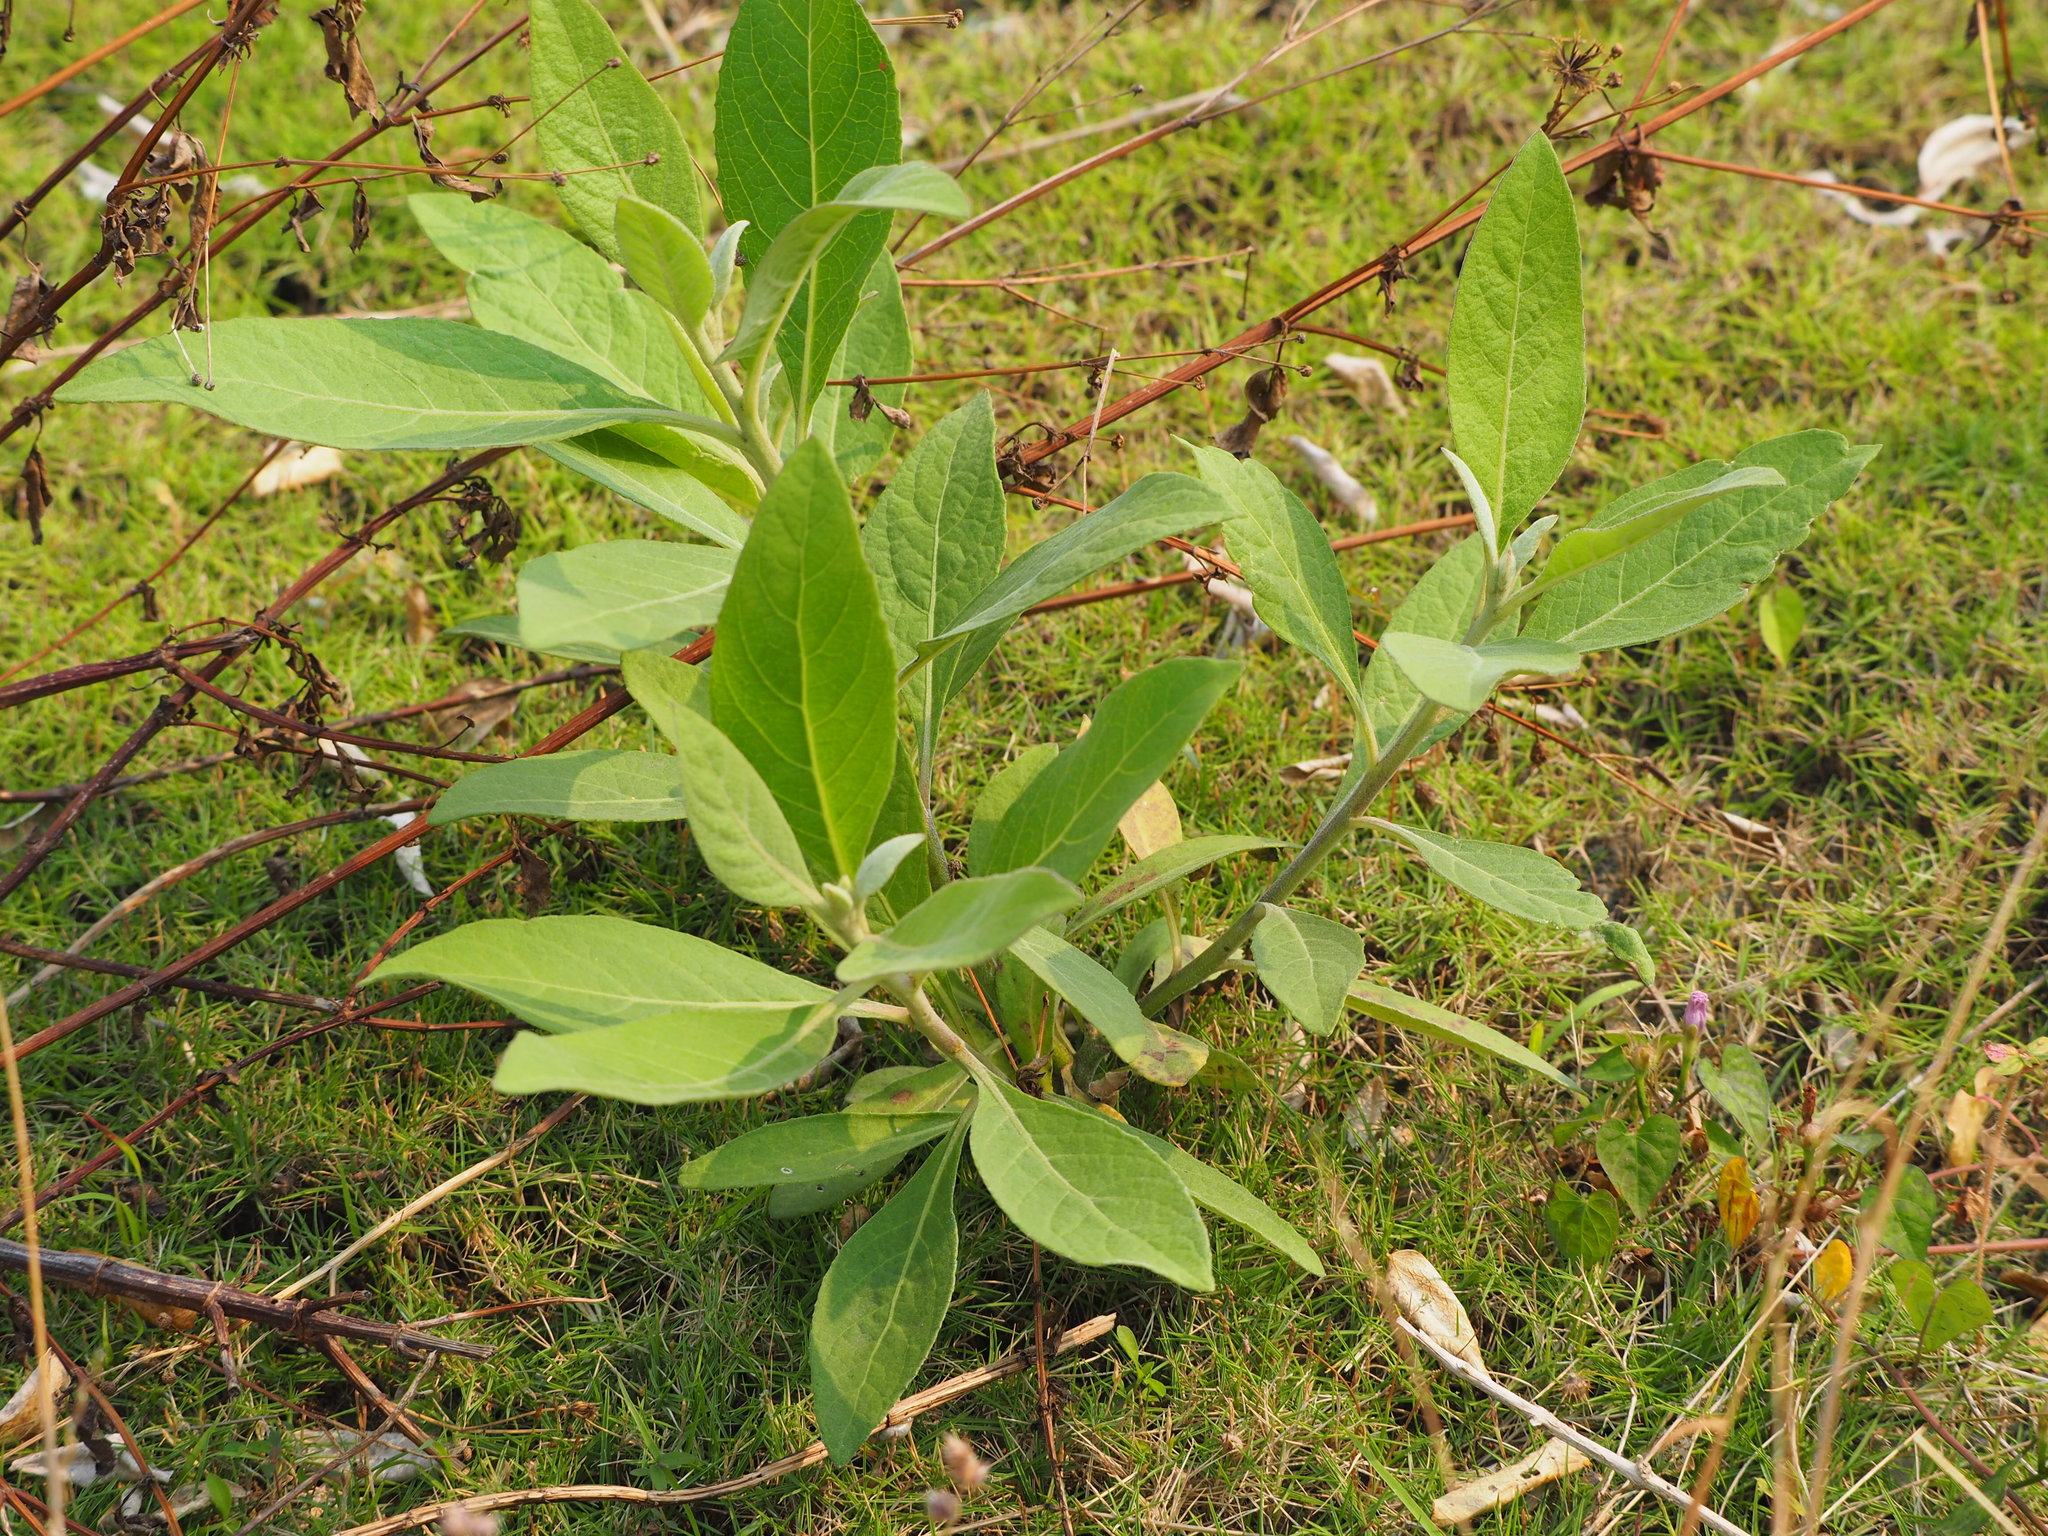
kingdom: Plantae
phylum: Tracheophyta
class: Magnoliopsida
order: Asterales
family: Asteraceae
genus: Pluchea
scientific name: Pluchea carolinensis
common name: Marsh fleabane
